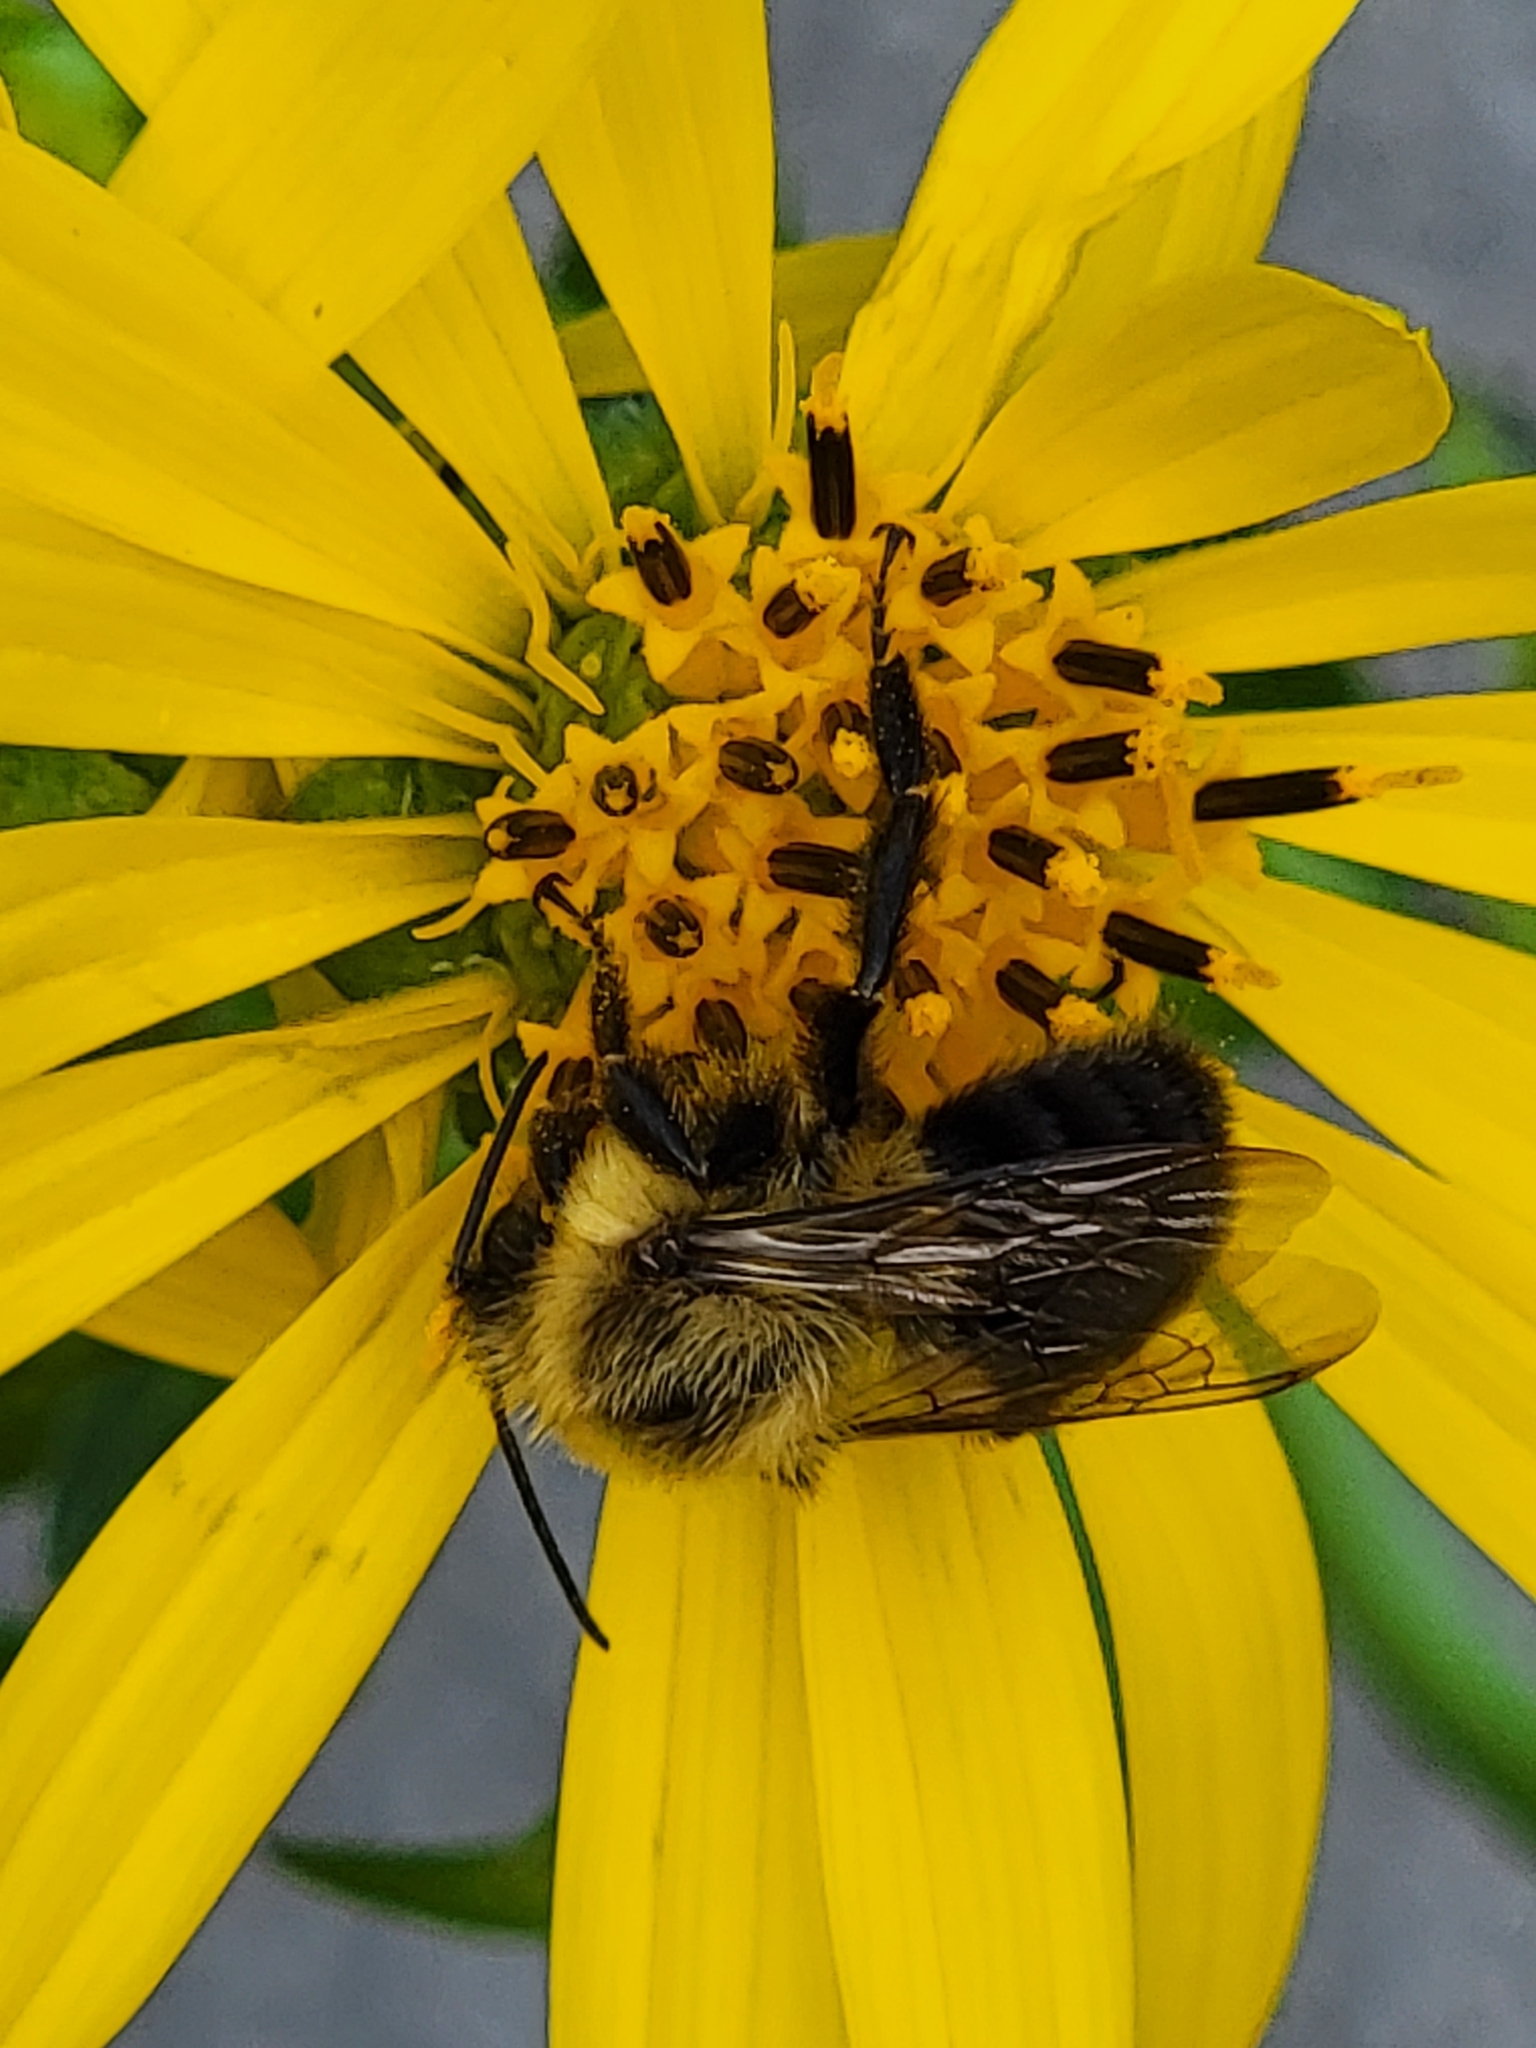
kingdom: Animalia
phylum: Arthropoda
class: Insecta
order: Hymenoptera
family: Apidae
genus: Bombus
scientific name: Bombus impatiens
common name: Common eastern bumble bee
